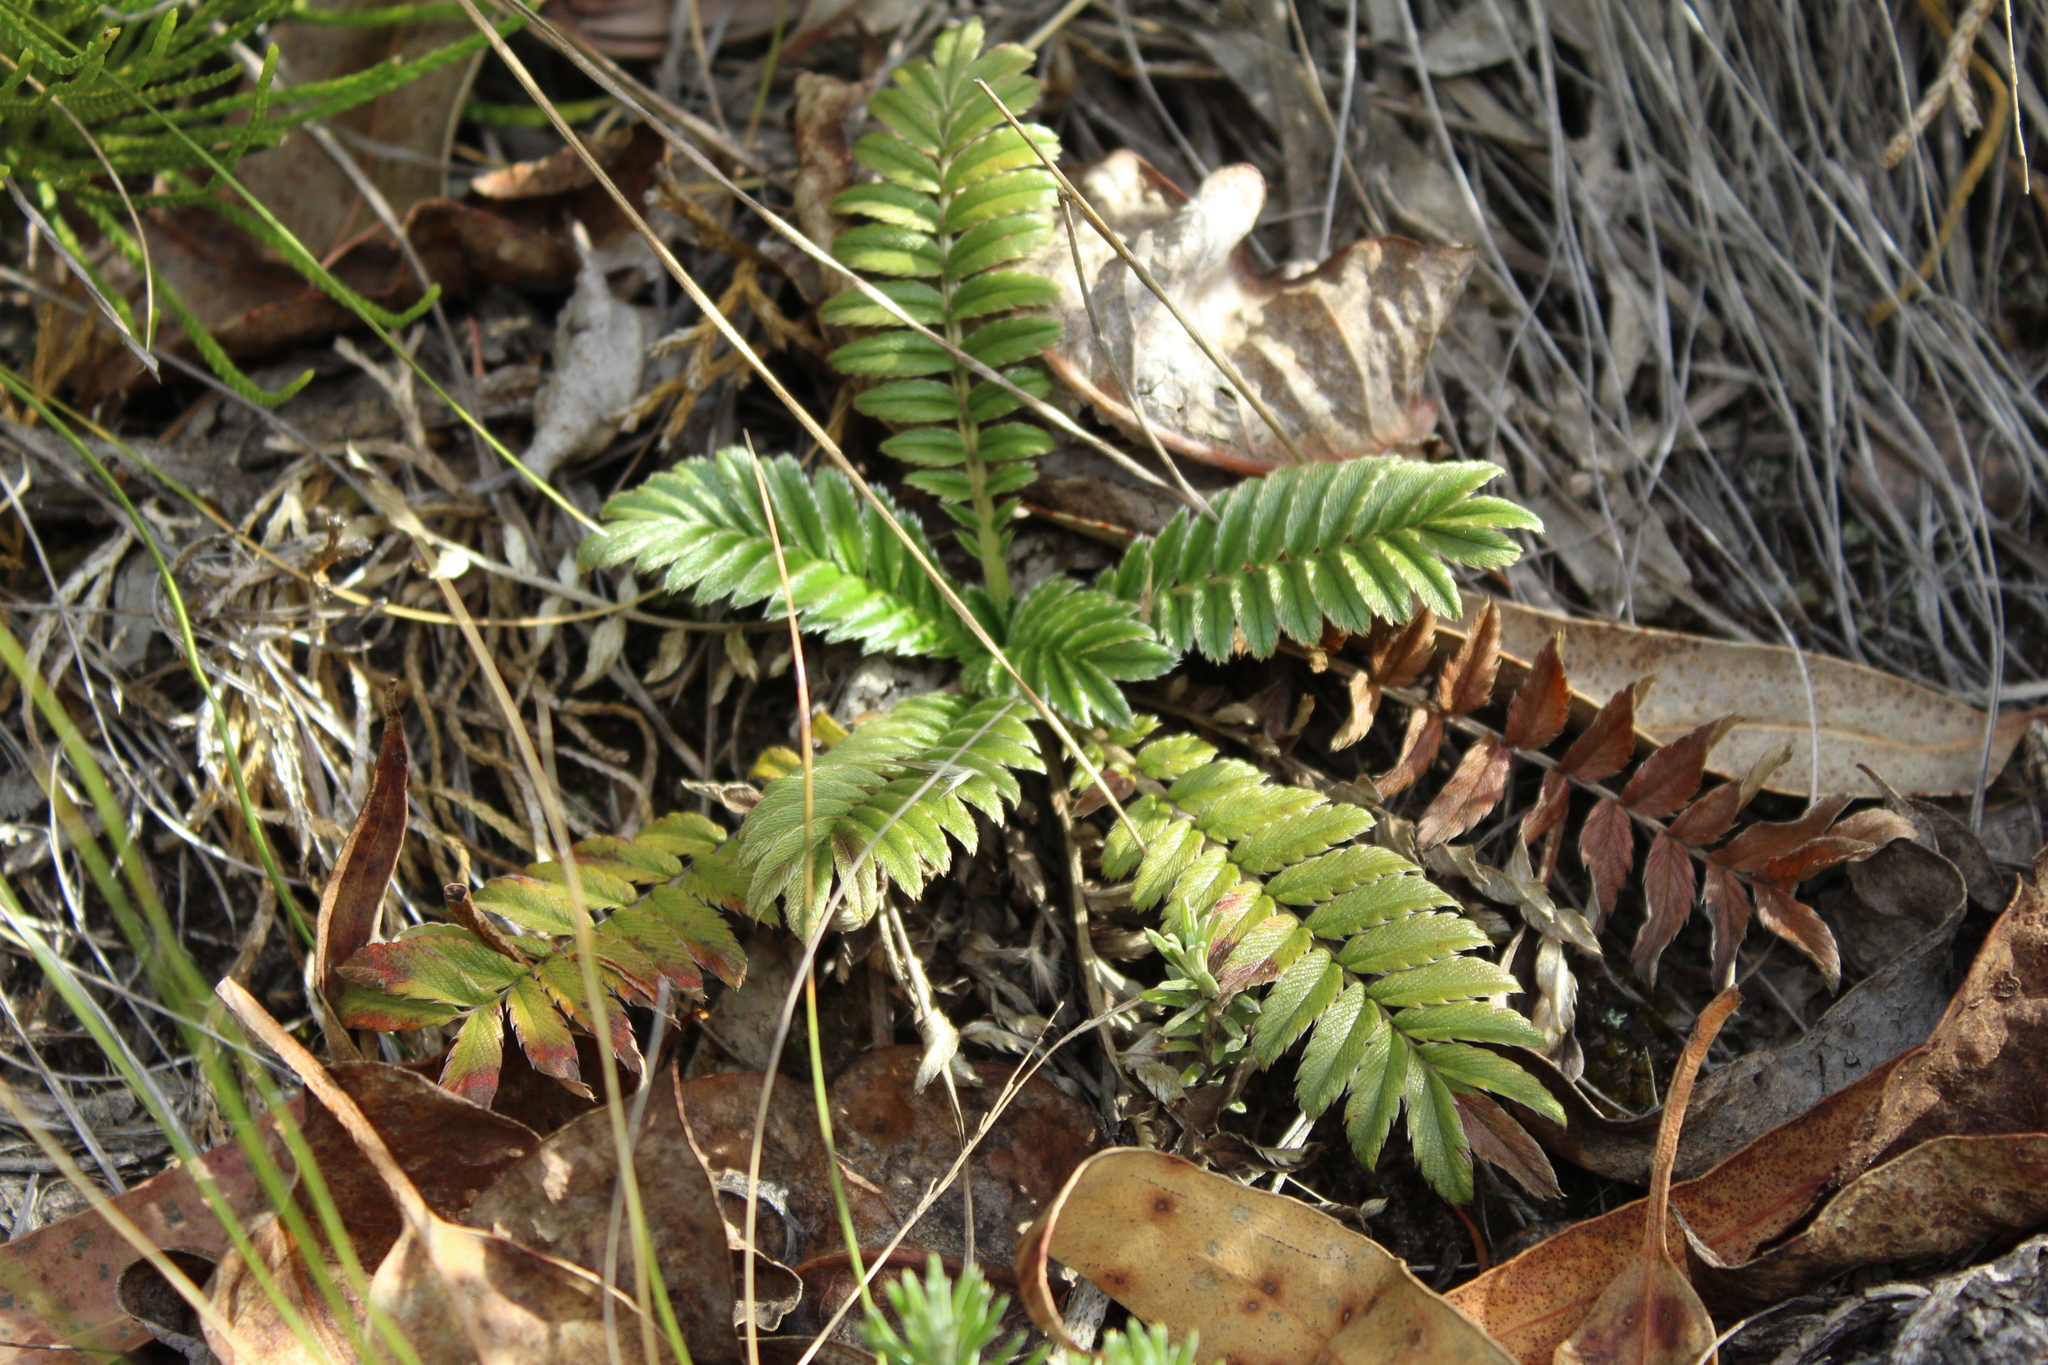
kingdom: Plantae
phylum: Tracheophyta
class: Magnoliopsida
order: Rosales
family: Rosaceae
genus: Acaena
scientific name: Acaena cylindristachya
